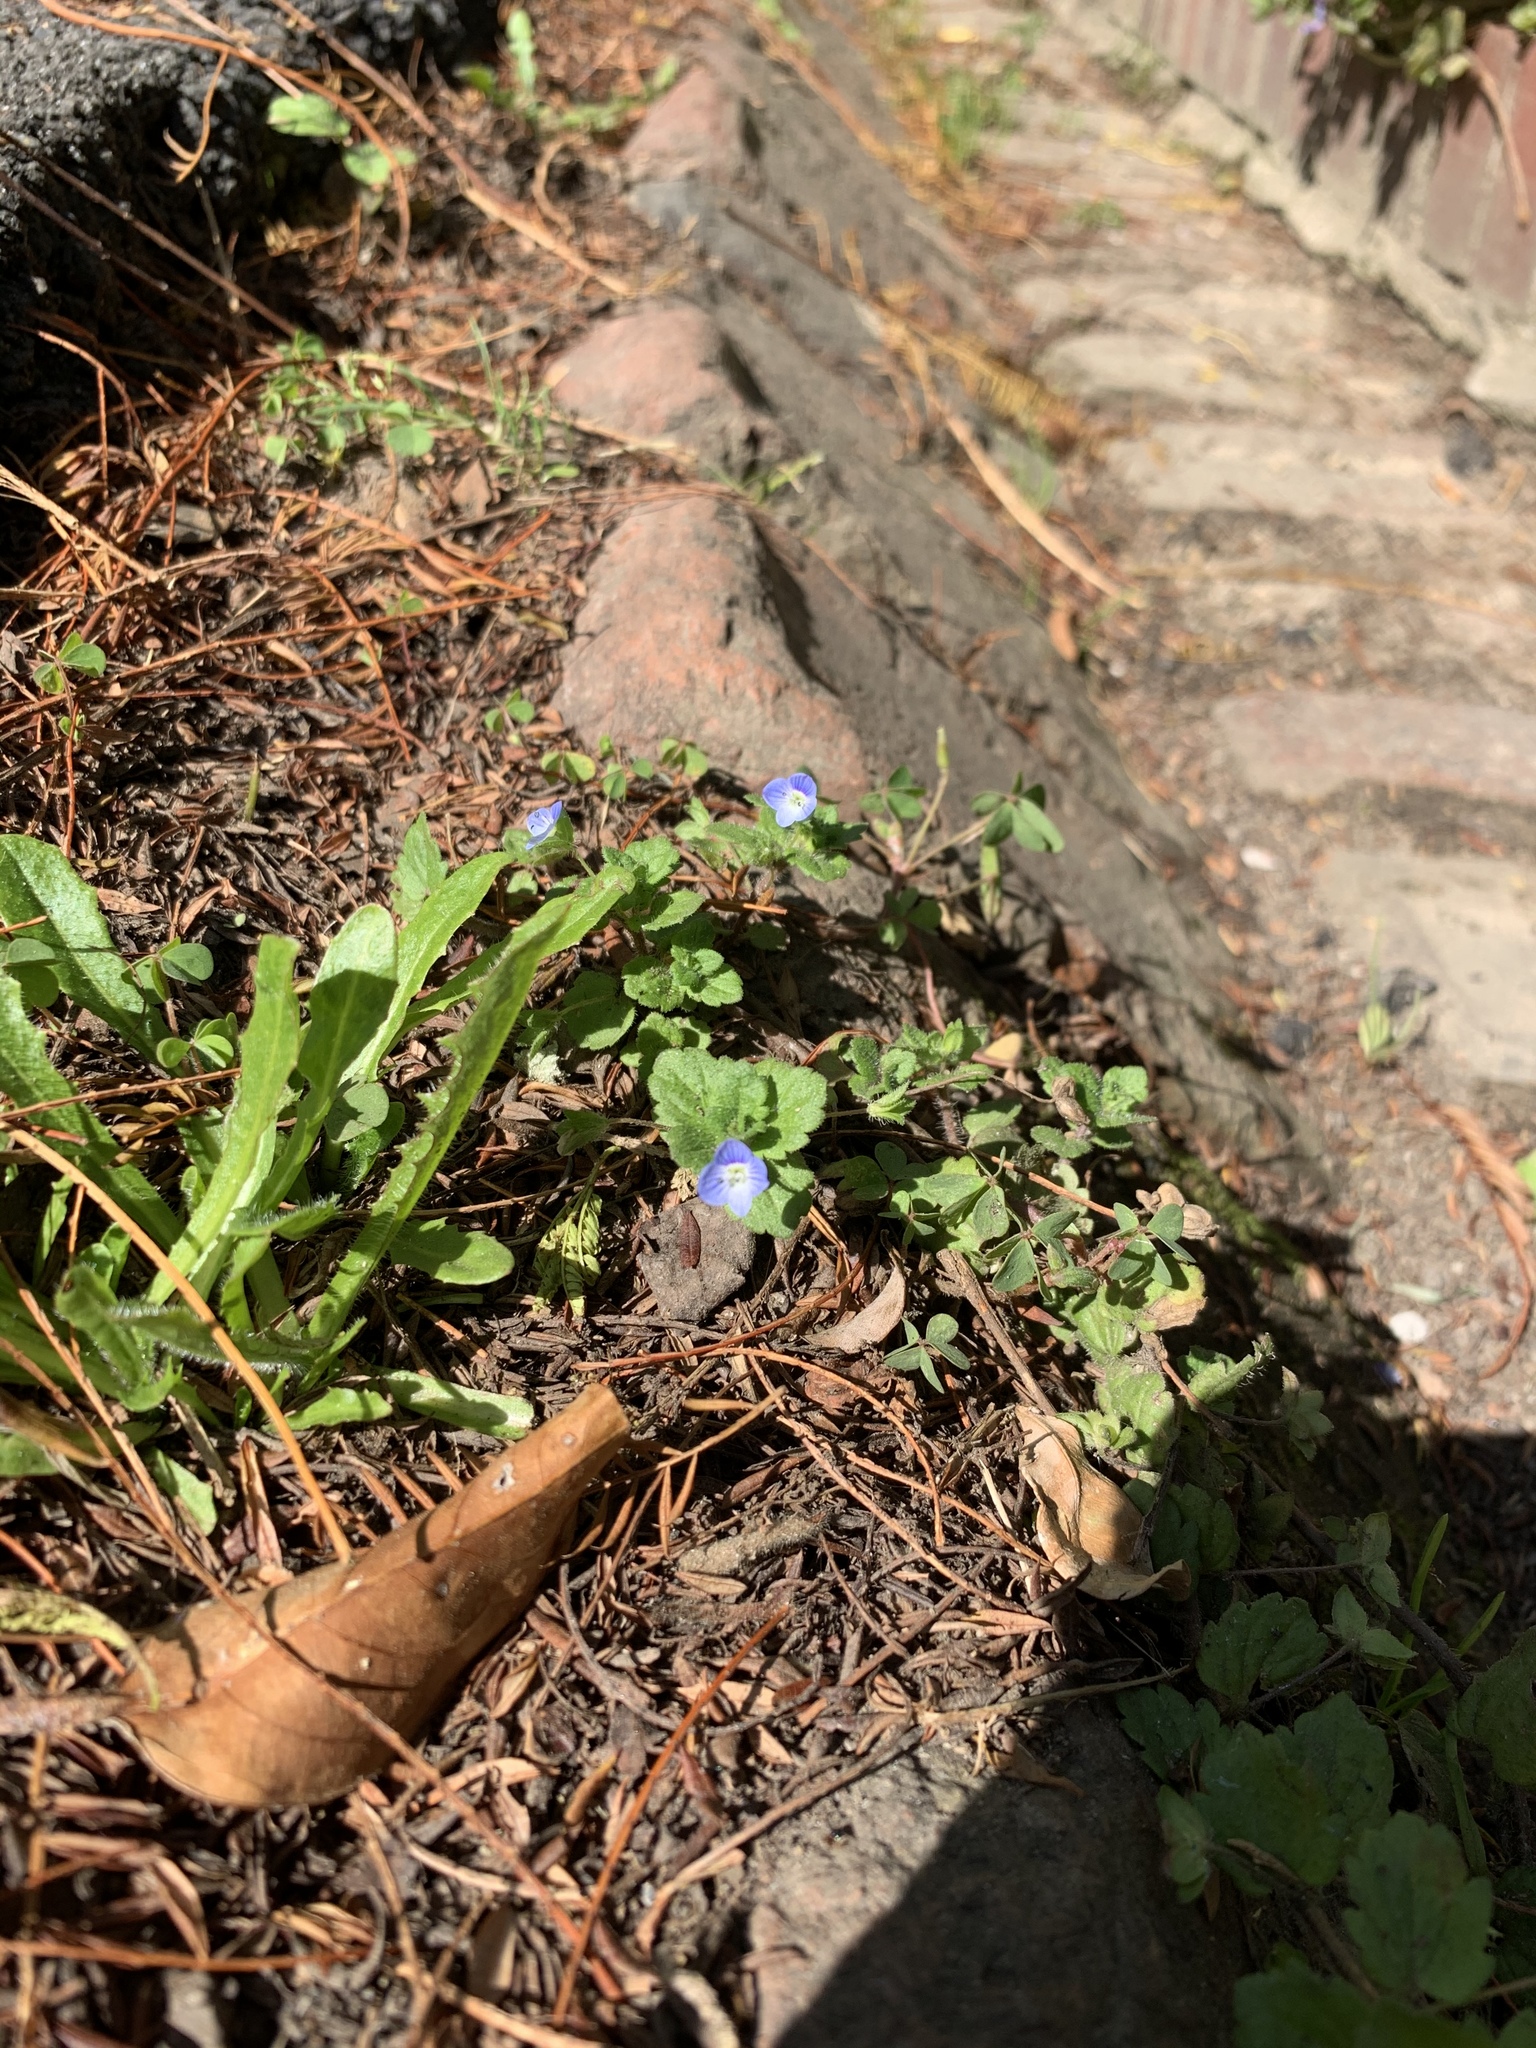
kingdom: Plantae
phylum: Tracheophyta
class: Magnoliopsida
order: Lamiales
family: Plantaginaceae
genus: Veronica
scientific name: Veronica persica
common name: Common field-speedwell
